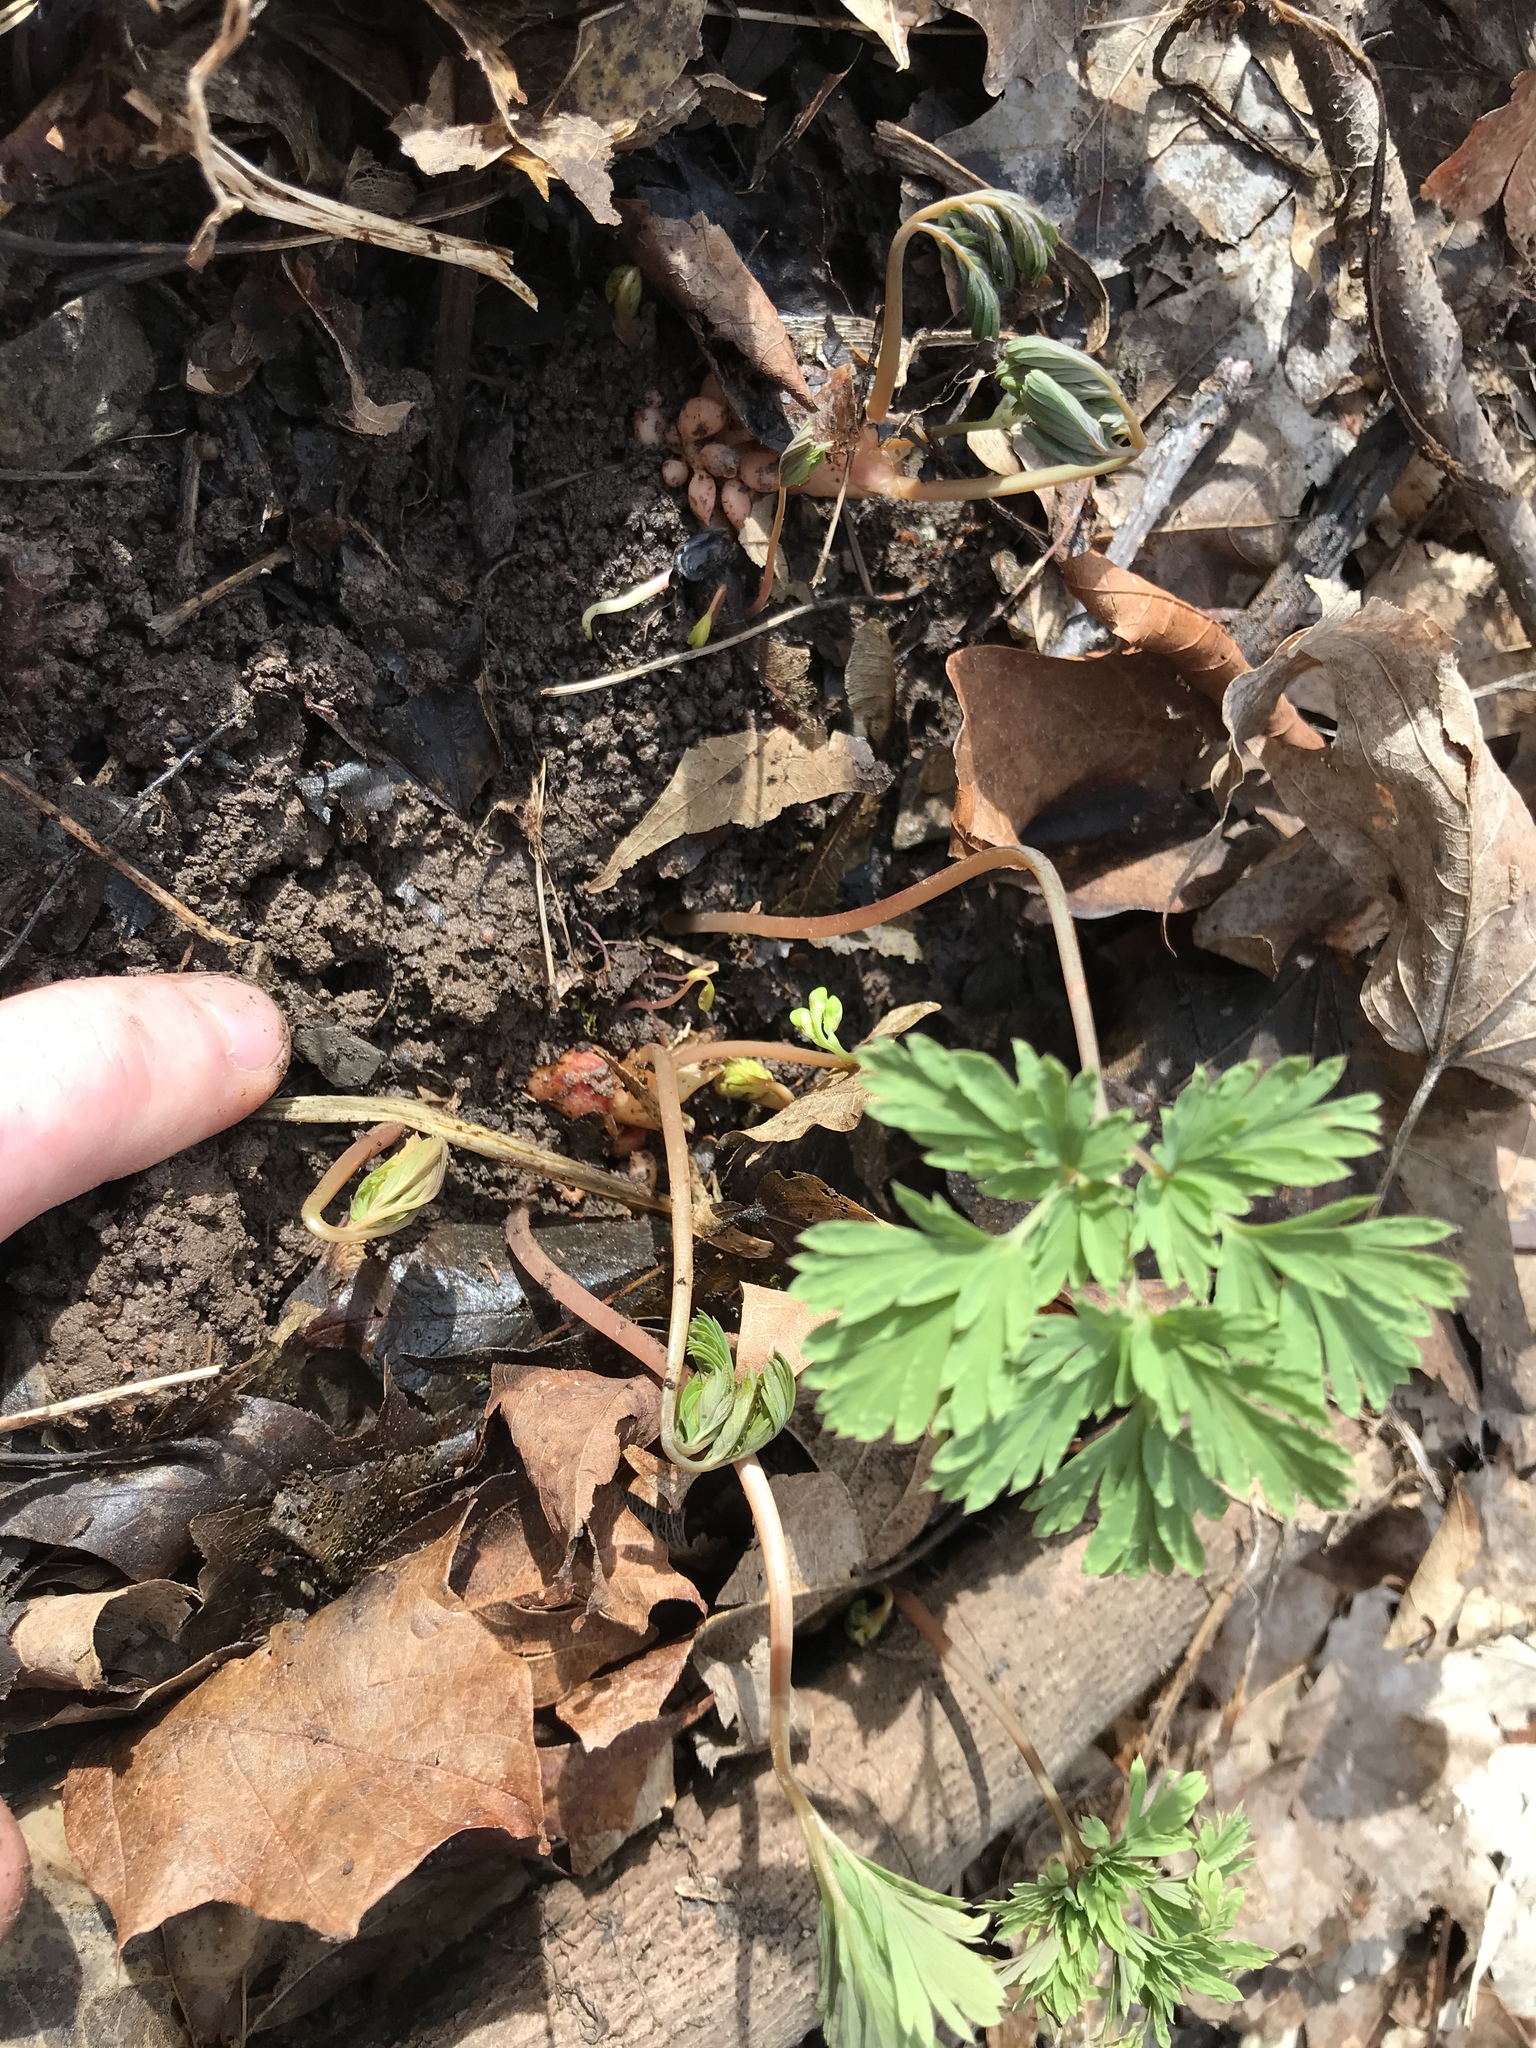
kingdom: Plantae
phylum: Tracheophyta
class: Magnoliopsida
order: Ranunculales
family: Papaveraceae
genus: Dicentra
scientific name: Dicentra cucullaria
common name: Dutchman's breeches
